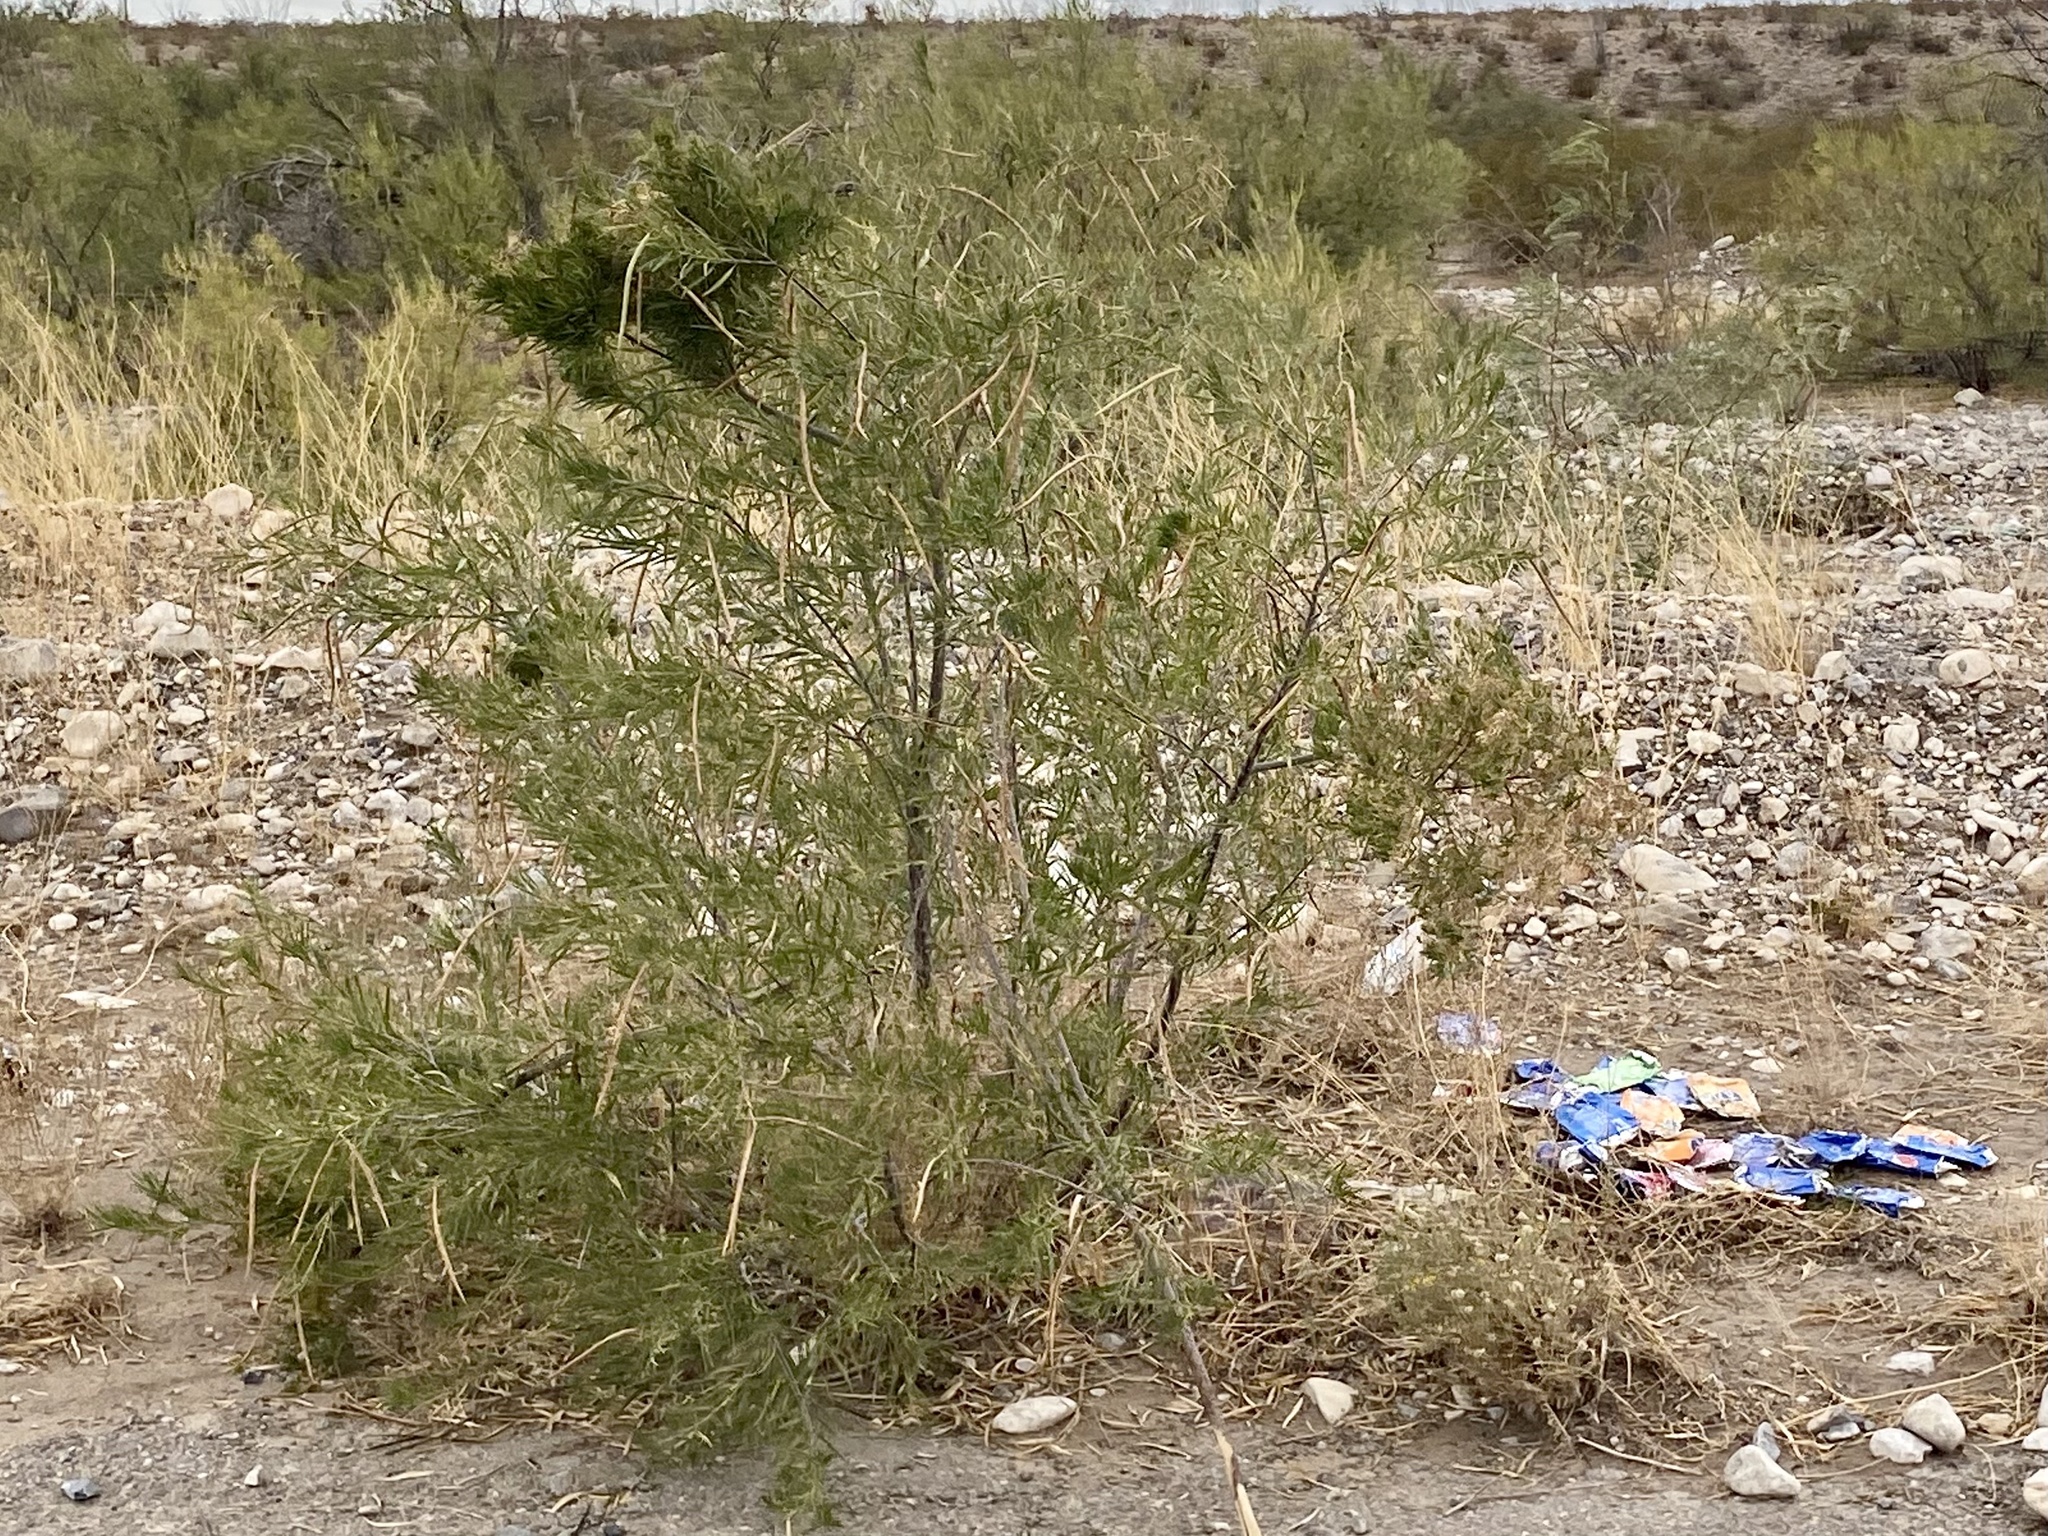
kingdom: Plantae
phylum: Tracheophyta
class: Magnoliopsida
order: Lamiales
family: Bignoniaceae
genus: Chilopsis
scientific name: Chilopsis linearis
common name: Desert-willow
